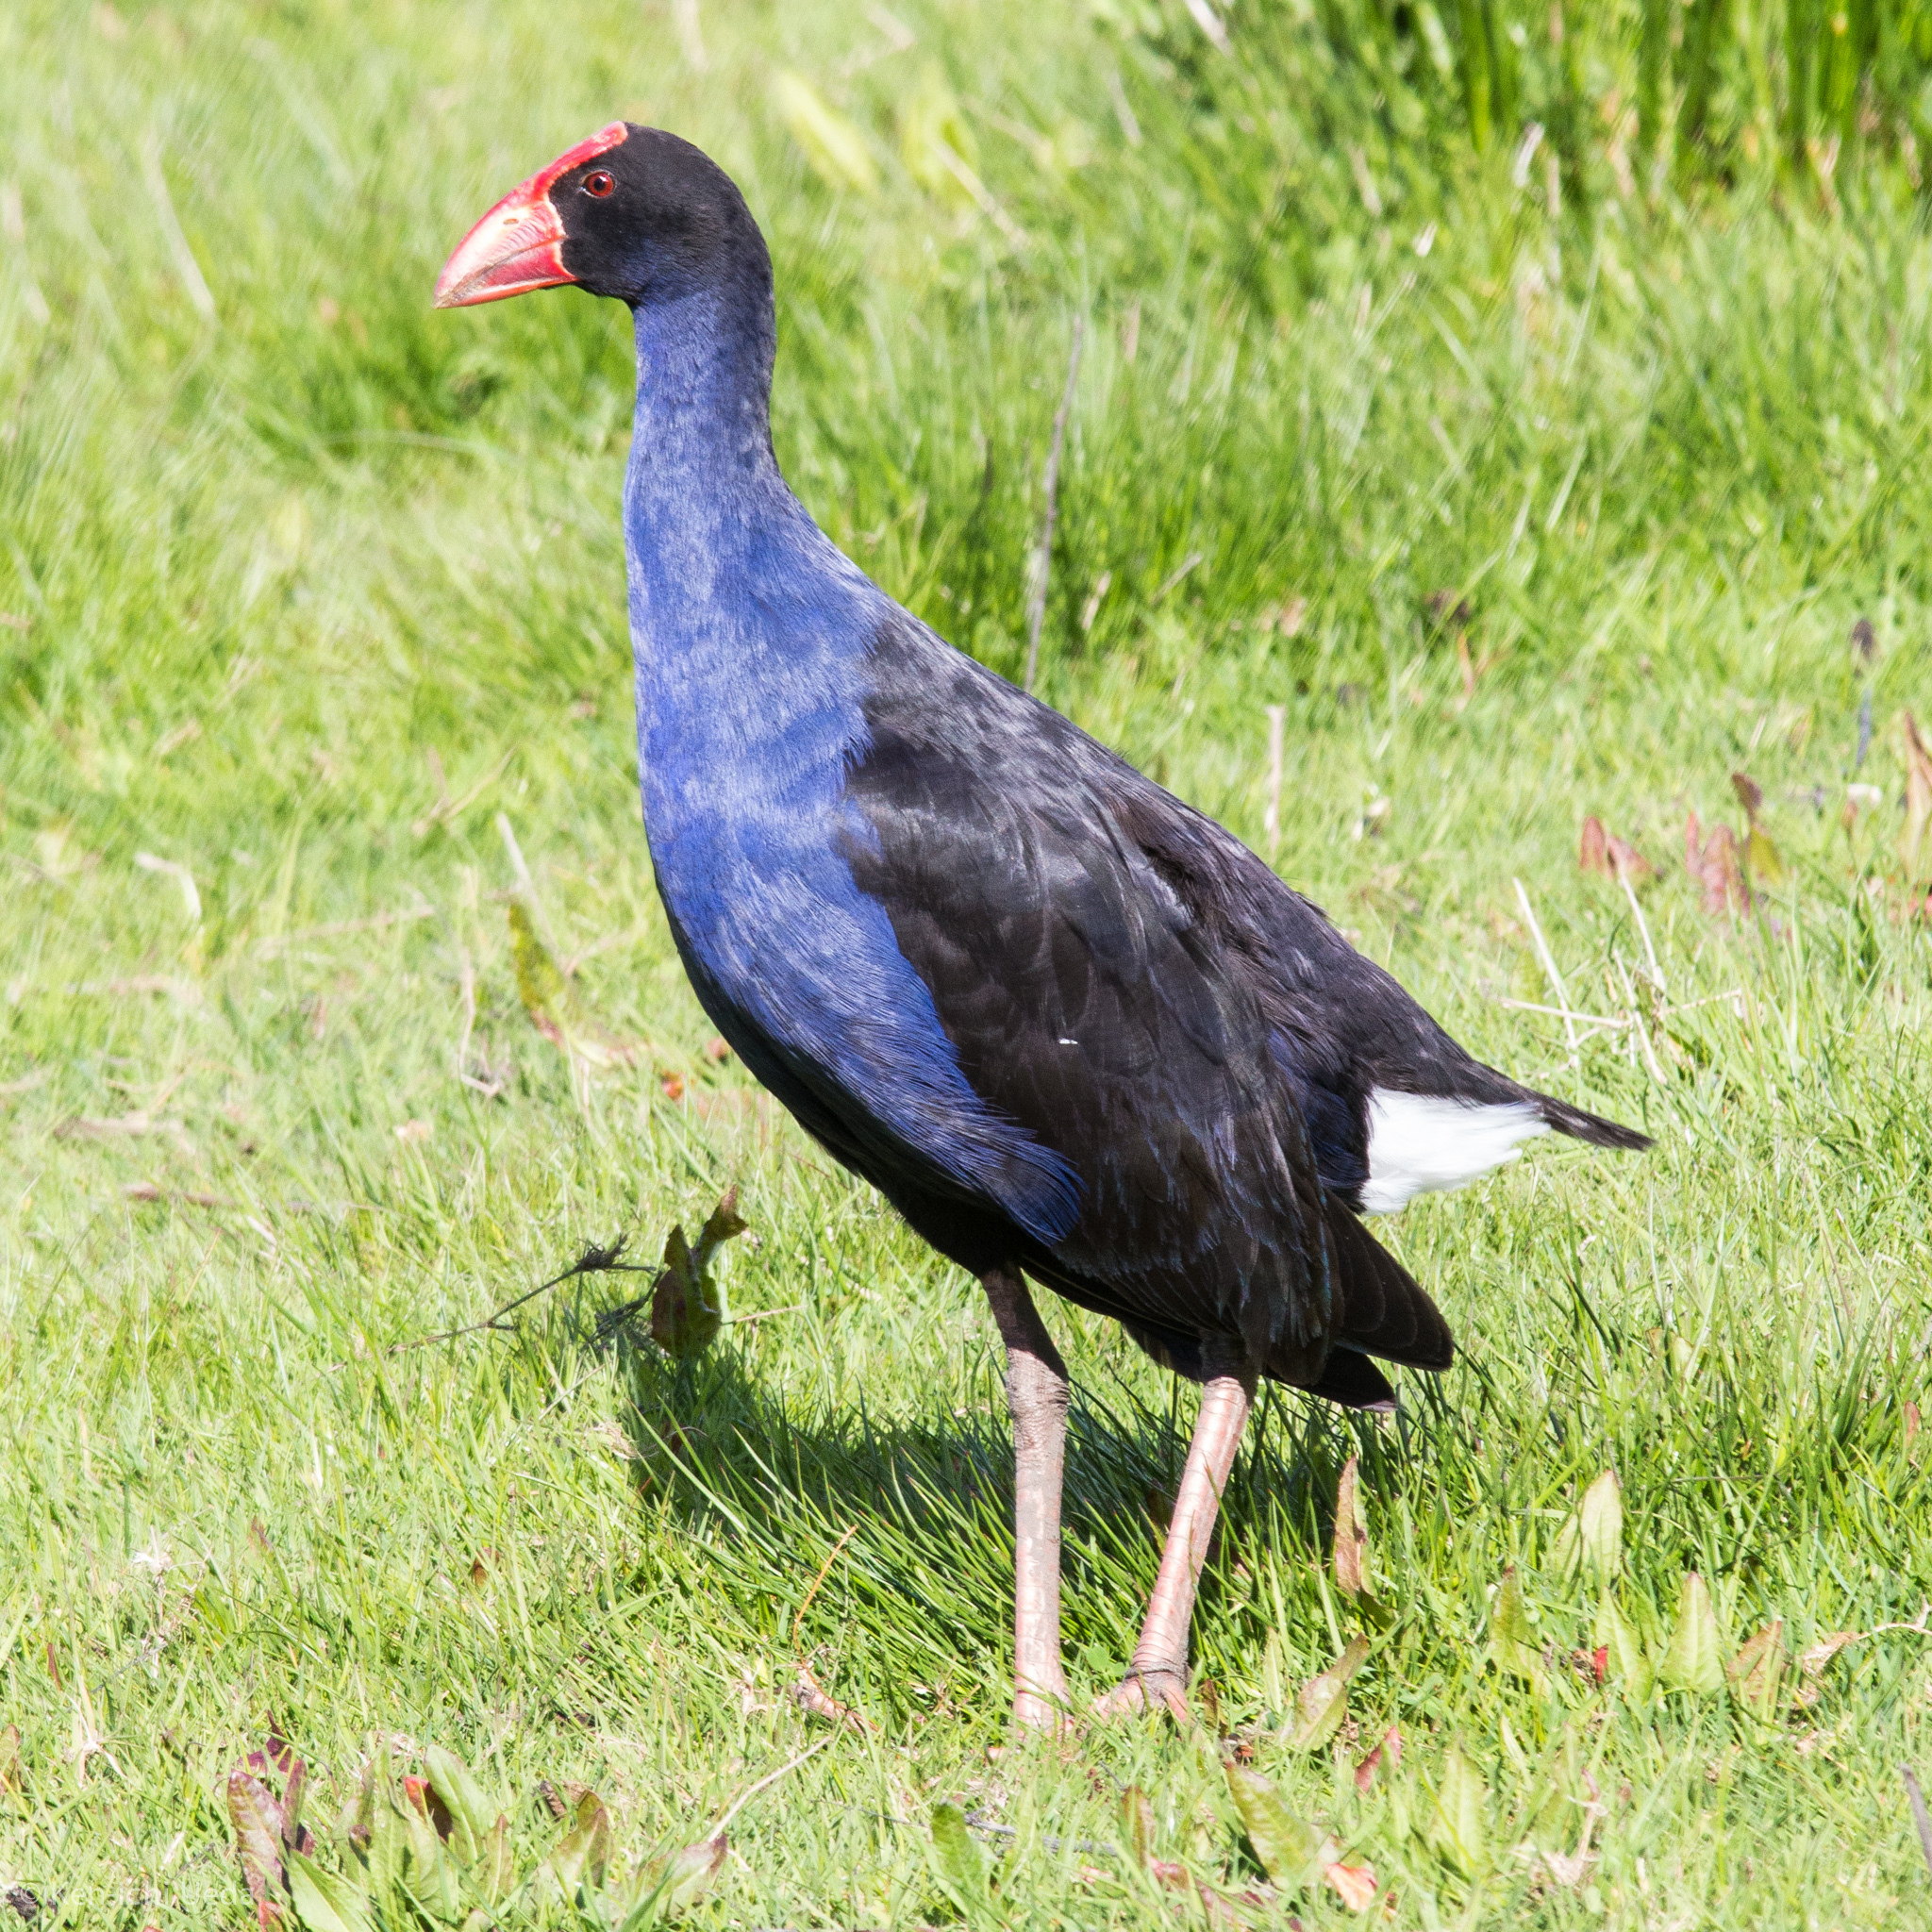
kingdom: Animalia
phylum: Chordata
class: Aves
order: Gruiformes
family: Rallidae
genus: Porphyrio
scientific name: Porphyrio melanotus
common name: Australasian swamphen
